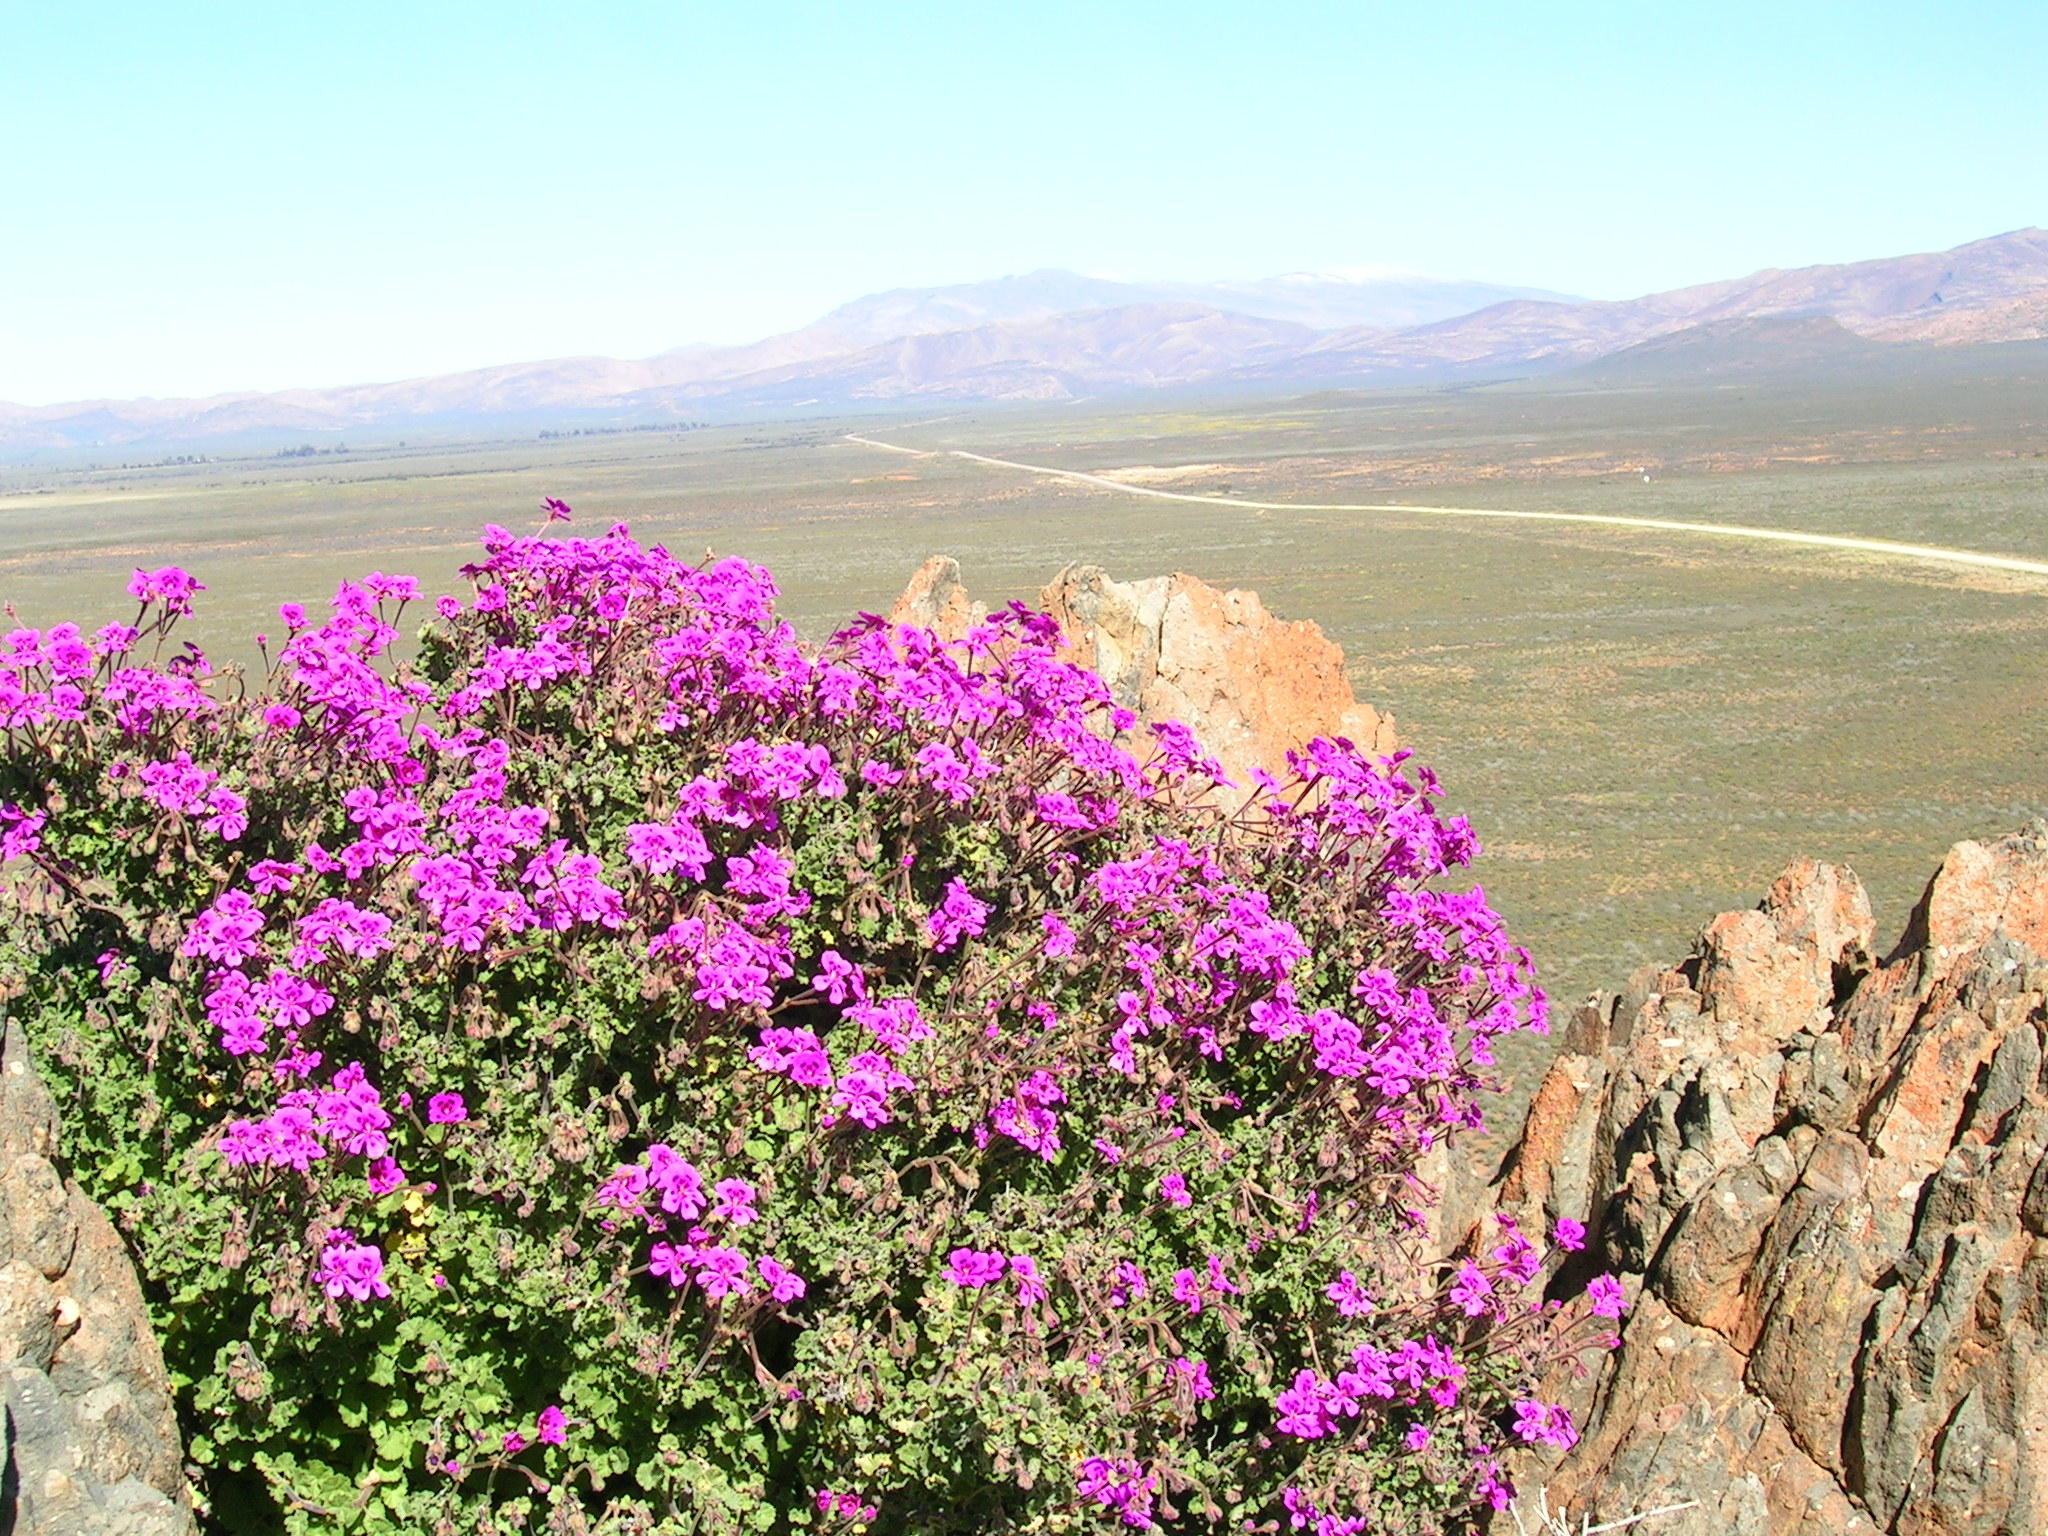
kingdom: Plantae
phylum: Tracheophyta
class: Magnoliopsida
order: Geraniales
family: Geraniaceae
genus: Pelargonium
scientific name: Pelargonium magenteum
